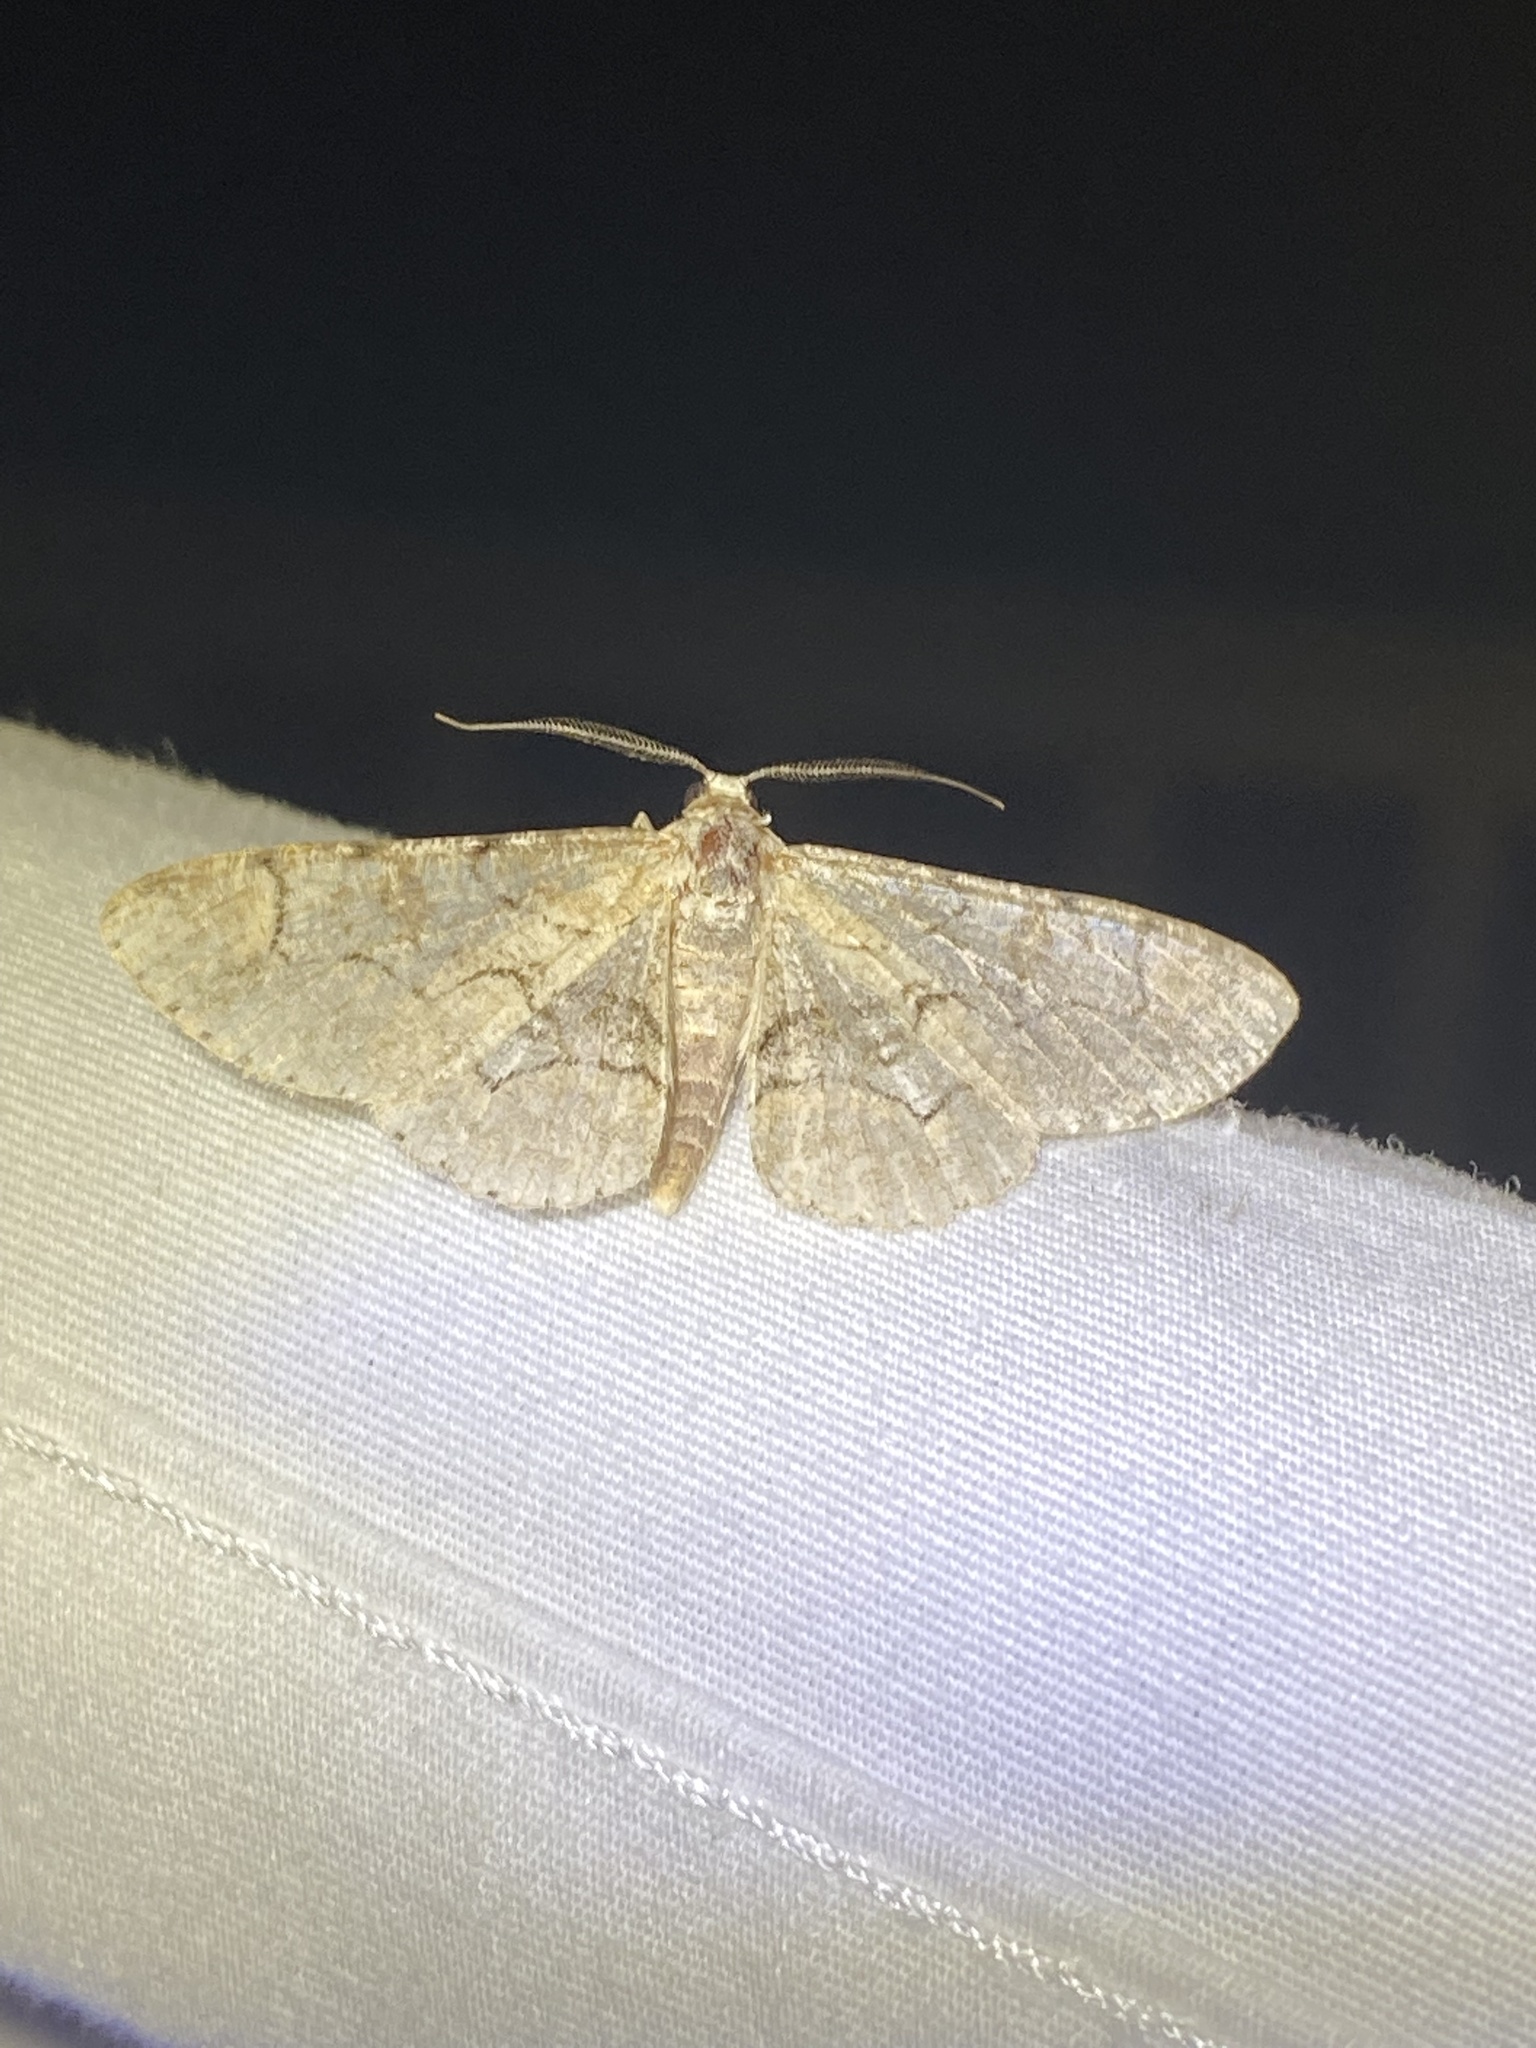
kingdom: Animalia
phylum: Arthropoda
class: Insecta
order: Lepidoptera
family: Geometridae
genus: Iridopsis
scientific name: Iridopsis larvaria
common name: Bent-line gray
